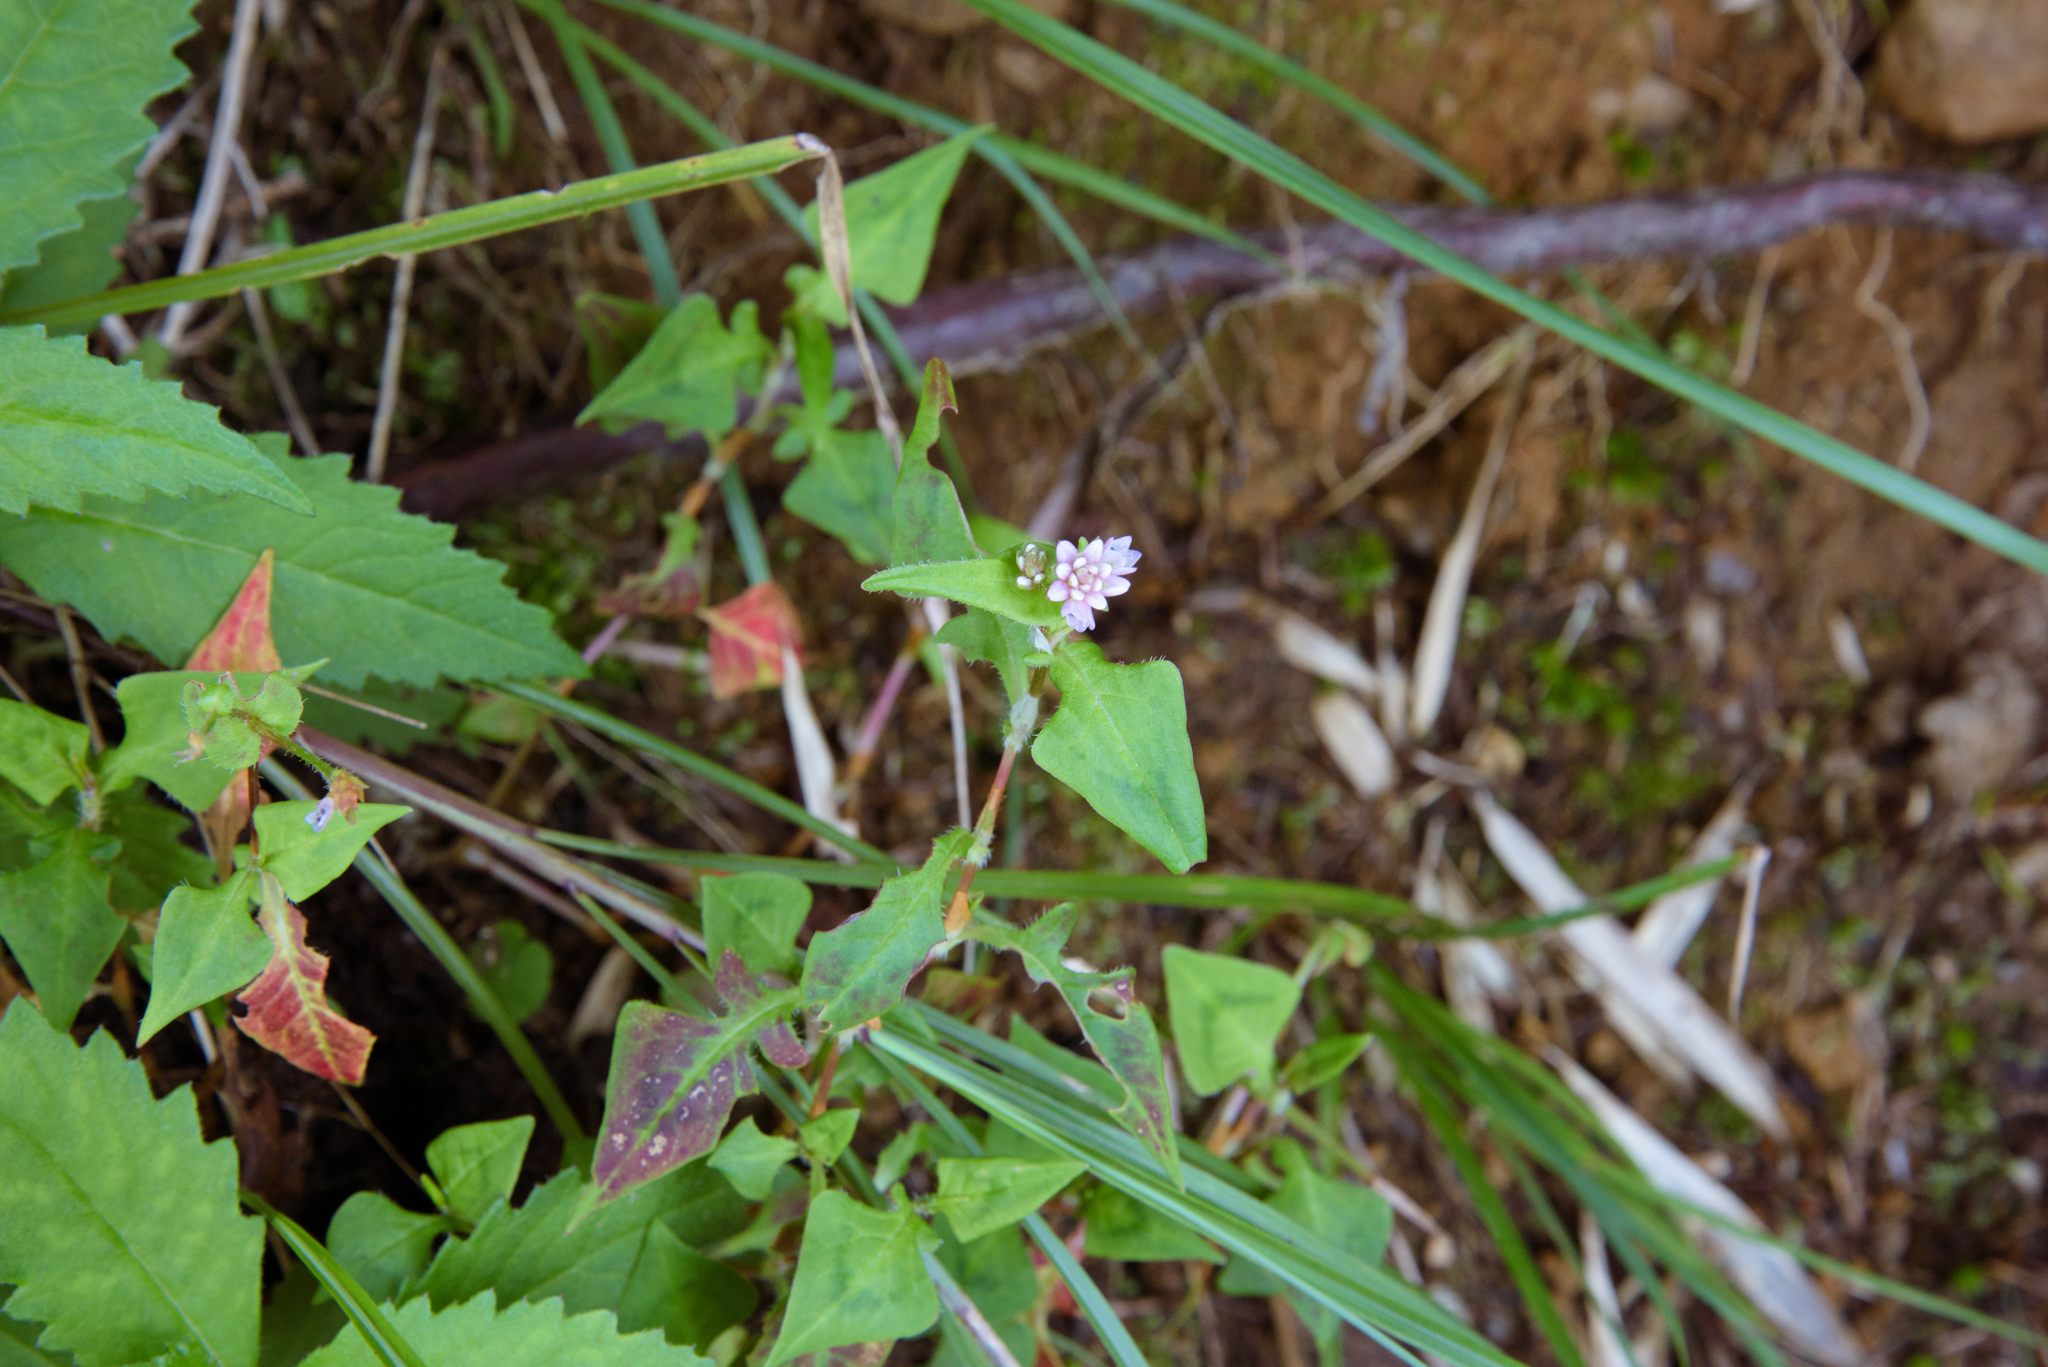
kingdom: Plantae
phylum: Tracheophyta
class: Magnoliopsida
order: Caryophyllales
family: Polygonaceae
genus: Persicaria
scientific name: Persicaria runcinata
